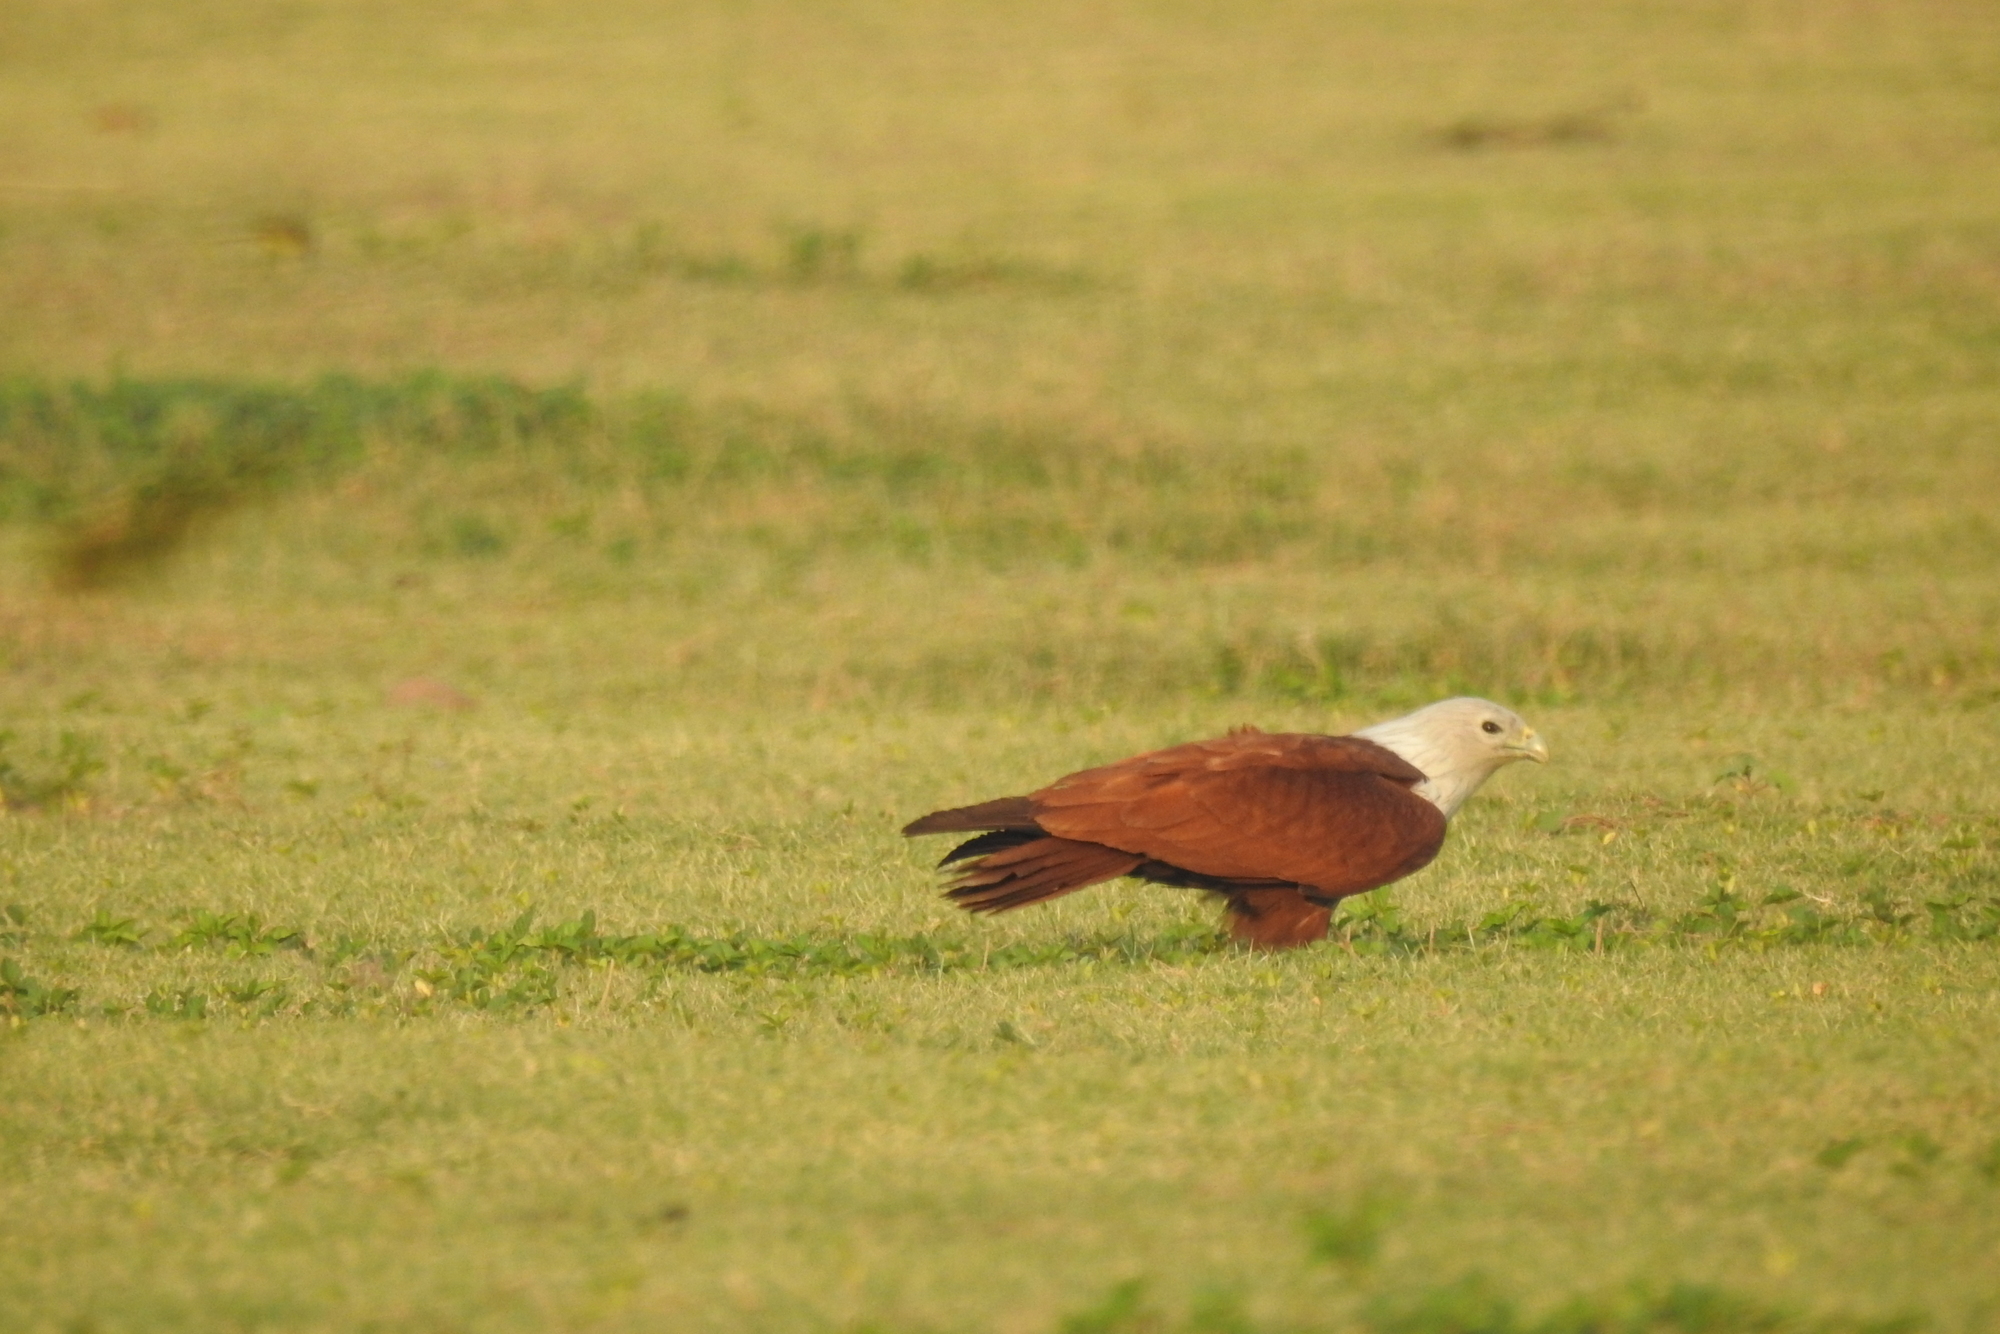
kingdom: Animalia
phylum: Chordata
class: Aves
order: Accipitriformes
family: Accipitridae
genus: Haliastur
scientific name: Haliastur indus
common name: Brahminy kite
